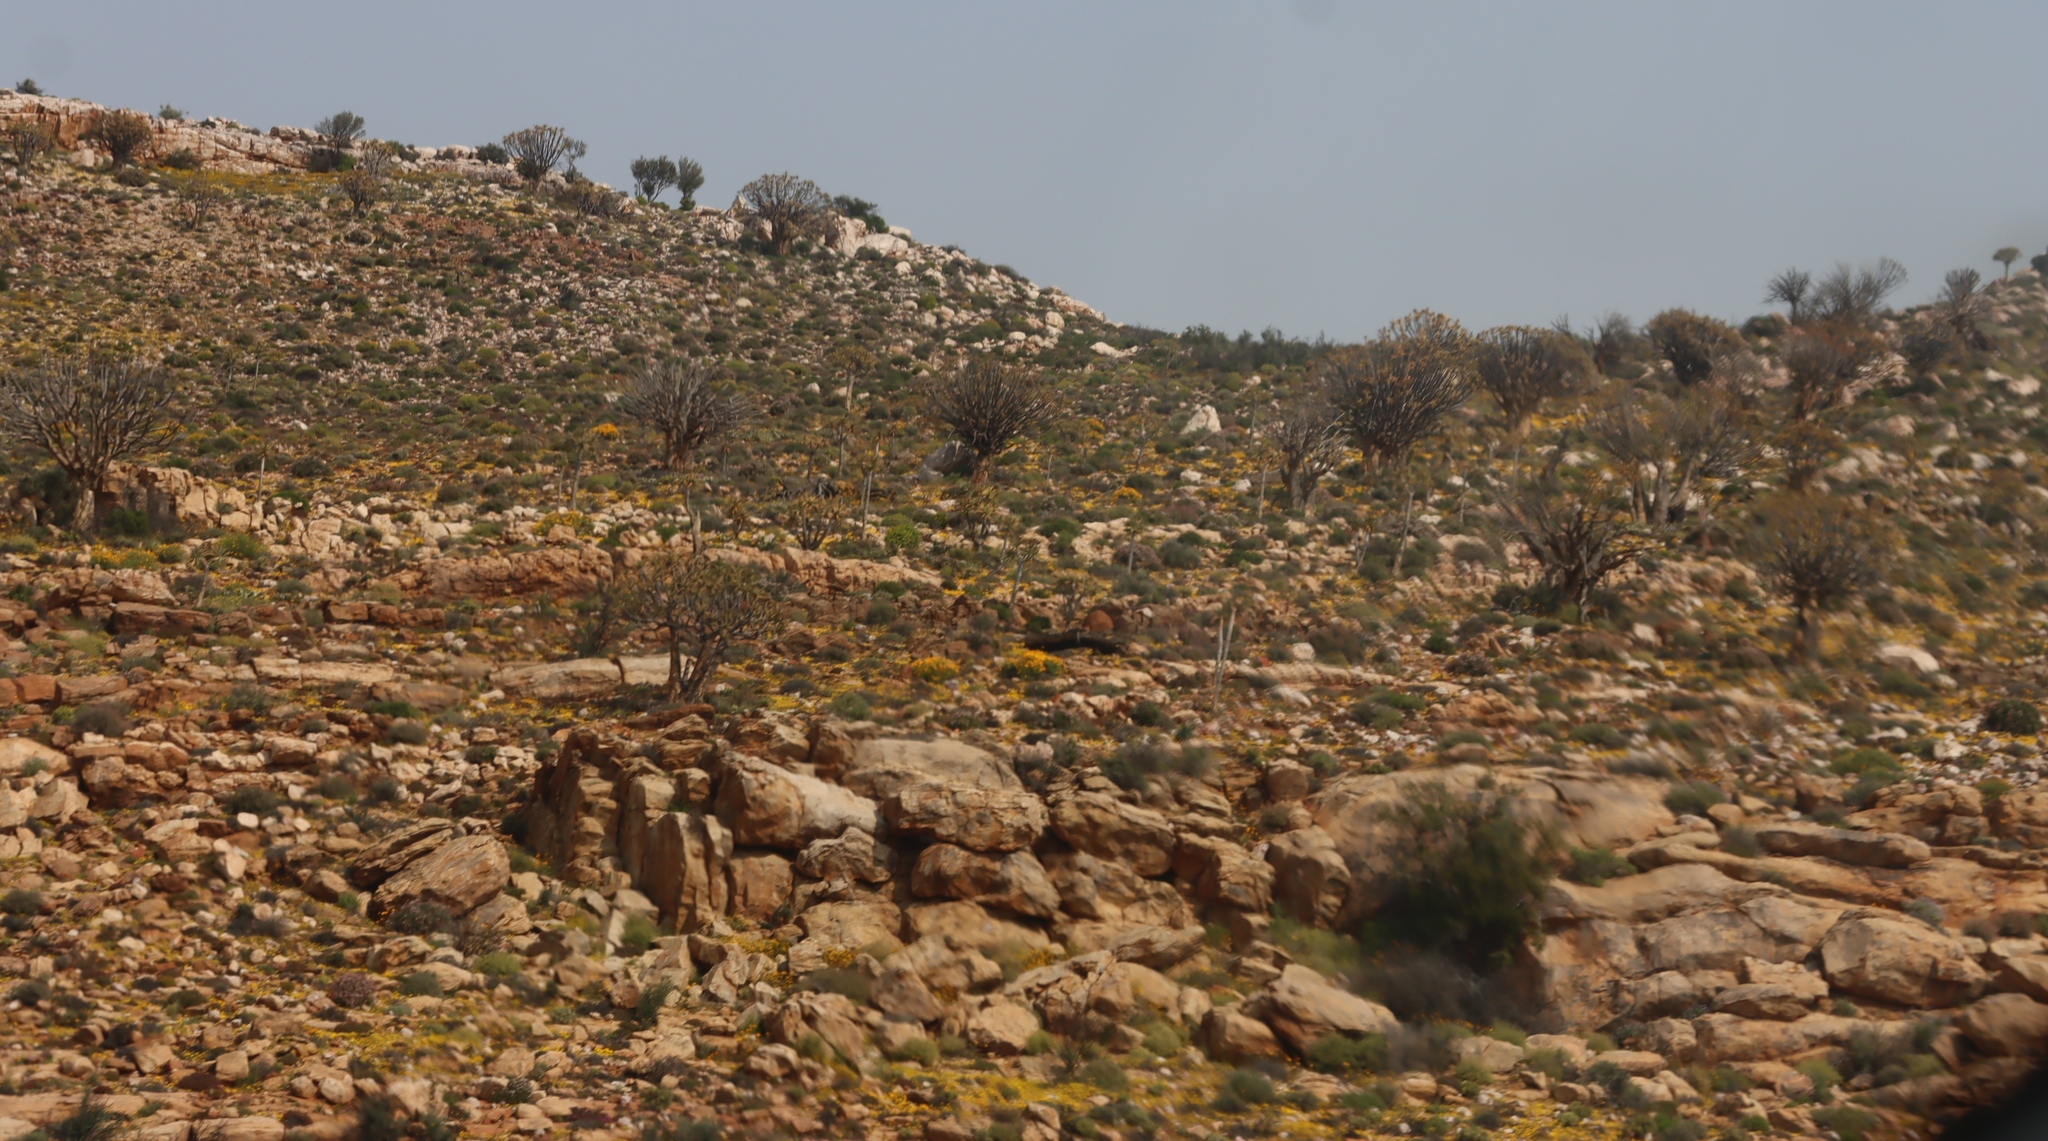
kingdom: Plantae
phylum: Tracheophyta
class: Liliopsida
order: Asparagales
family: Asphodelaceae
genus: Aloidendron
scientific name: Aloidendron dichotomum
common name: Quiver tree
